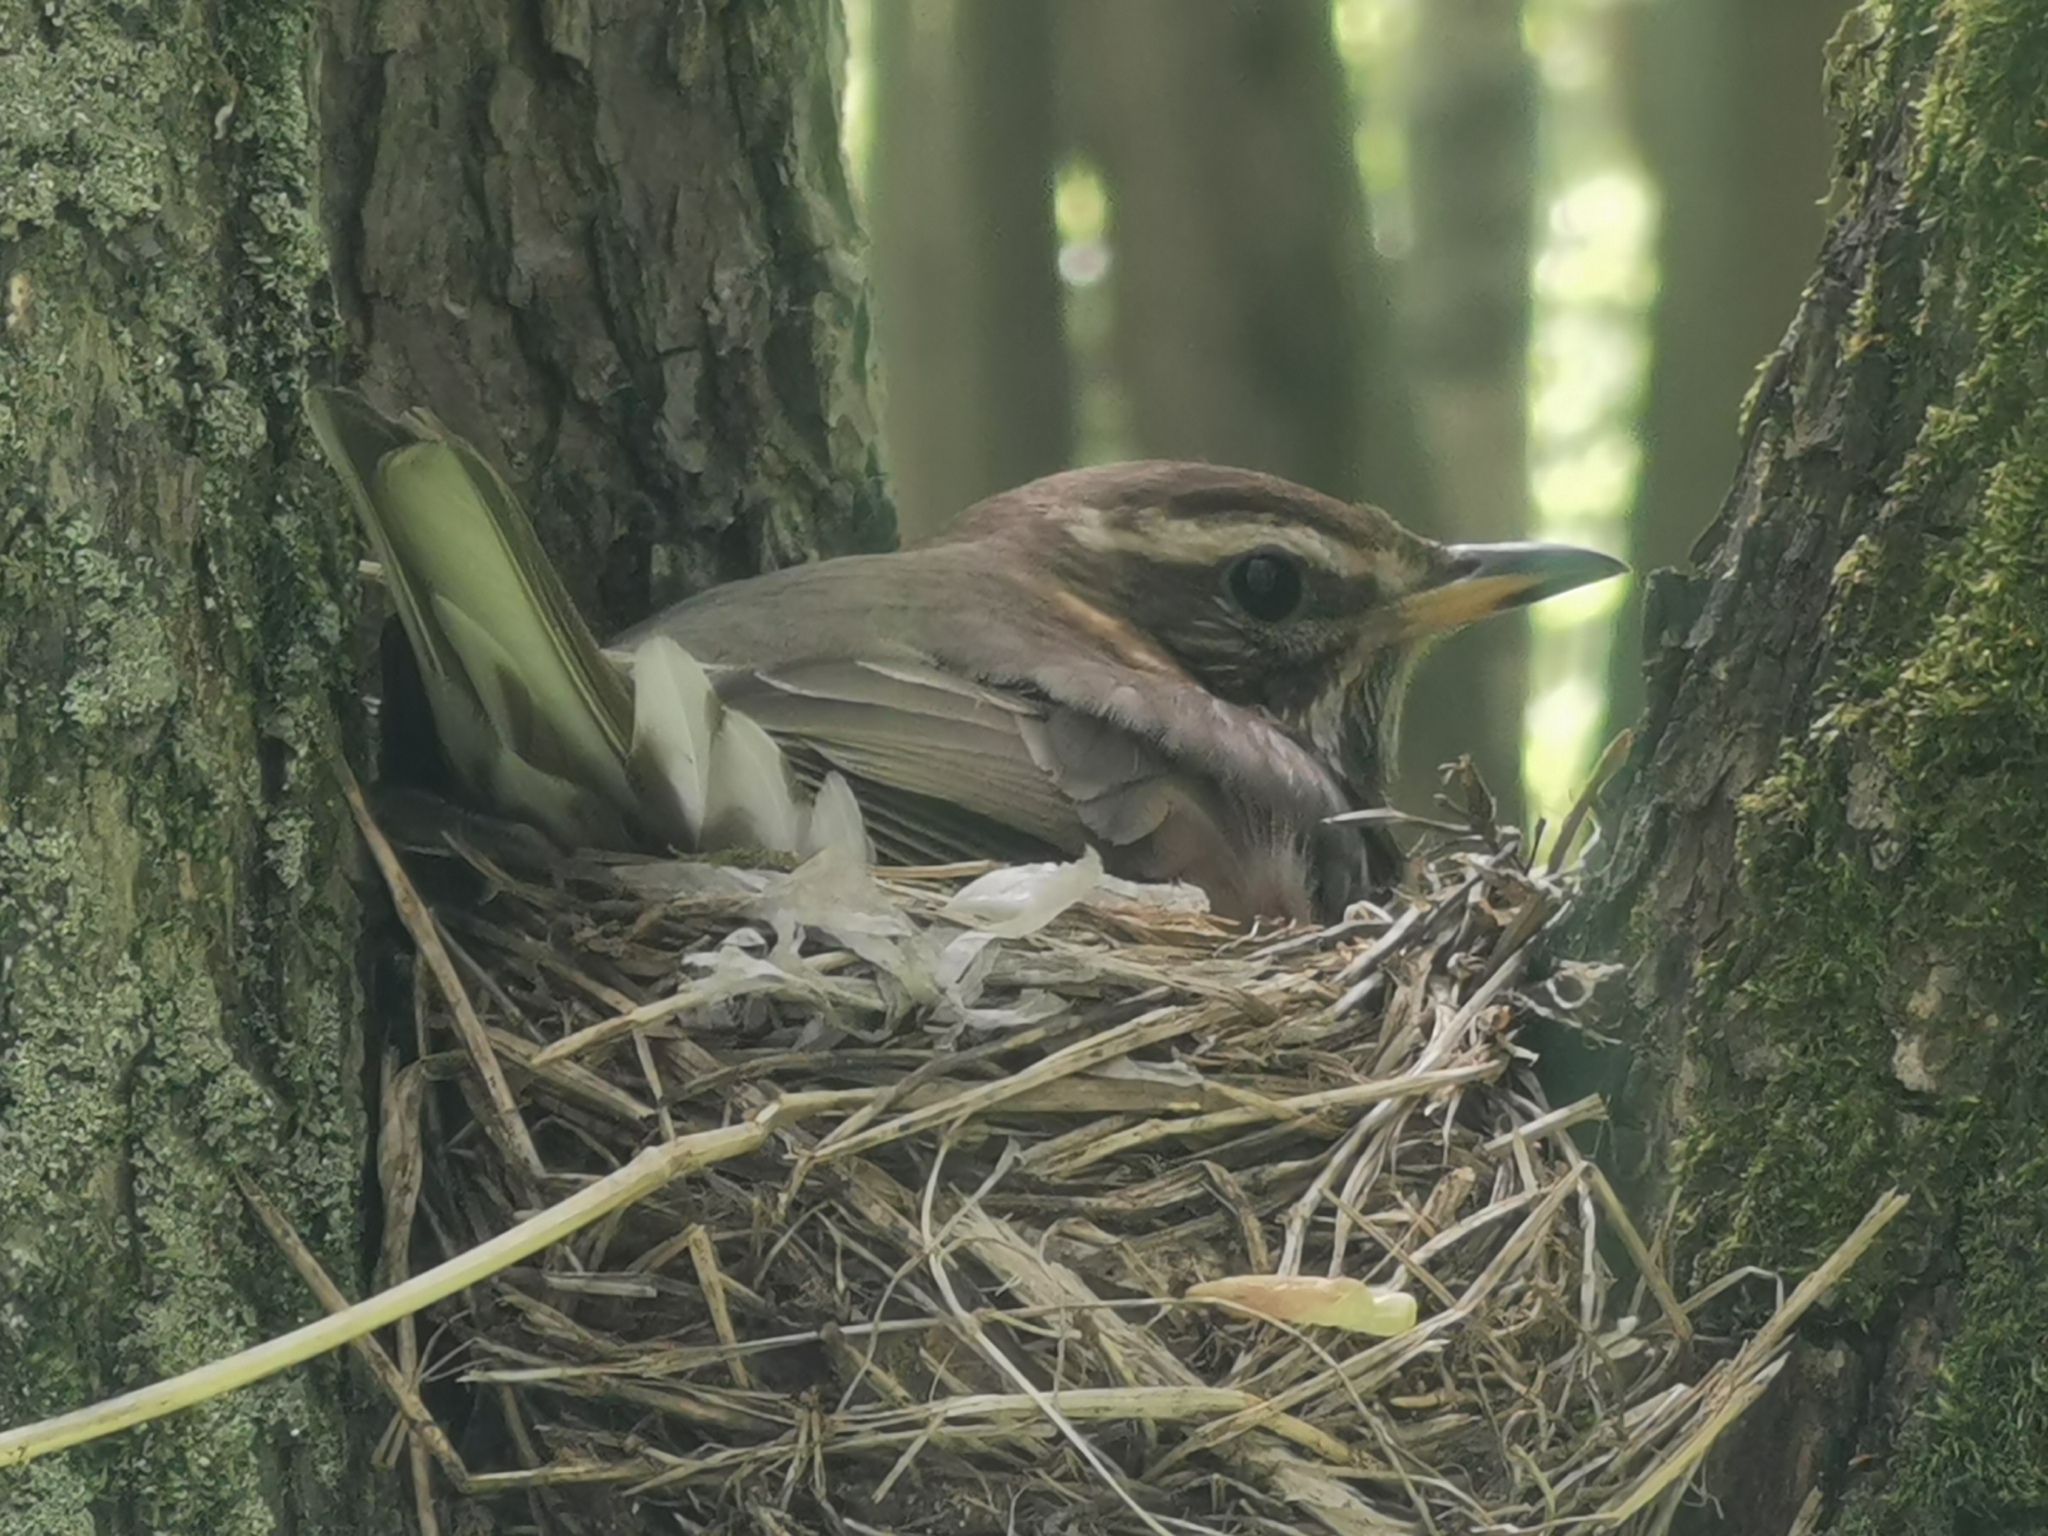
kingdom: Animalia
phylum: Chordata
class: Aves
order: Passeriformes
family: Turdidae
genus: Turdus
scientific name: Turdus iliacus
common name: Redwing
